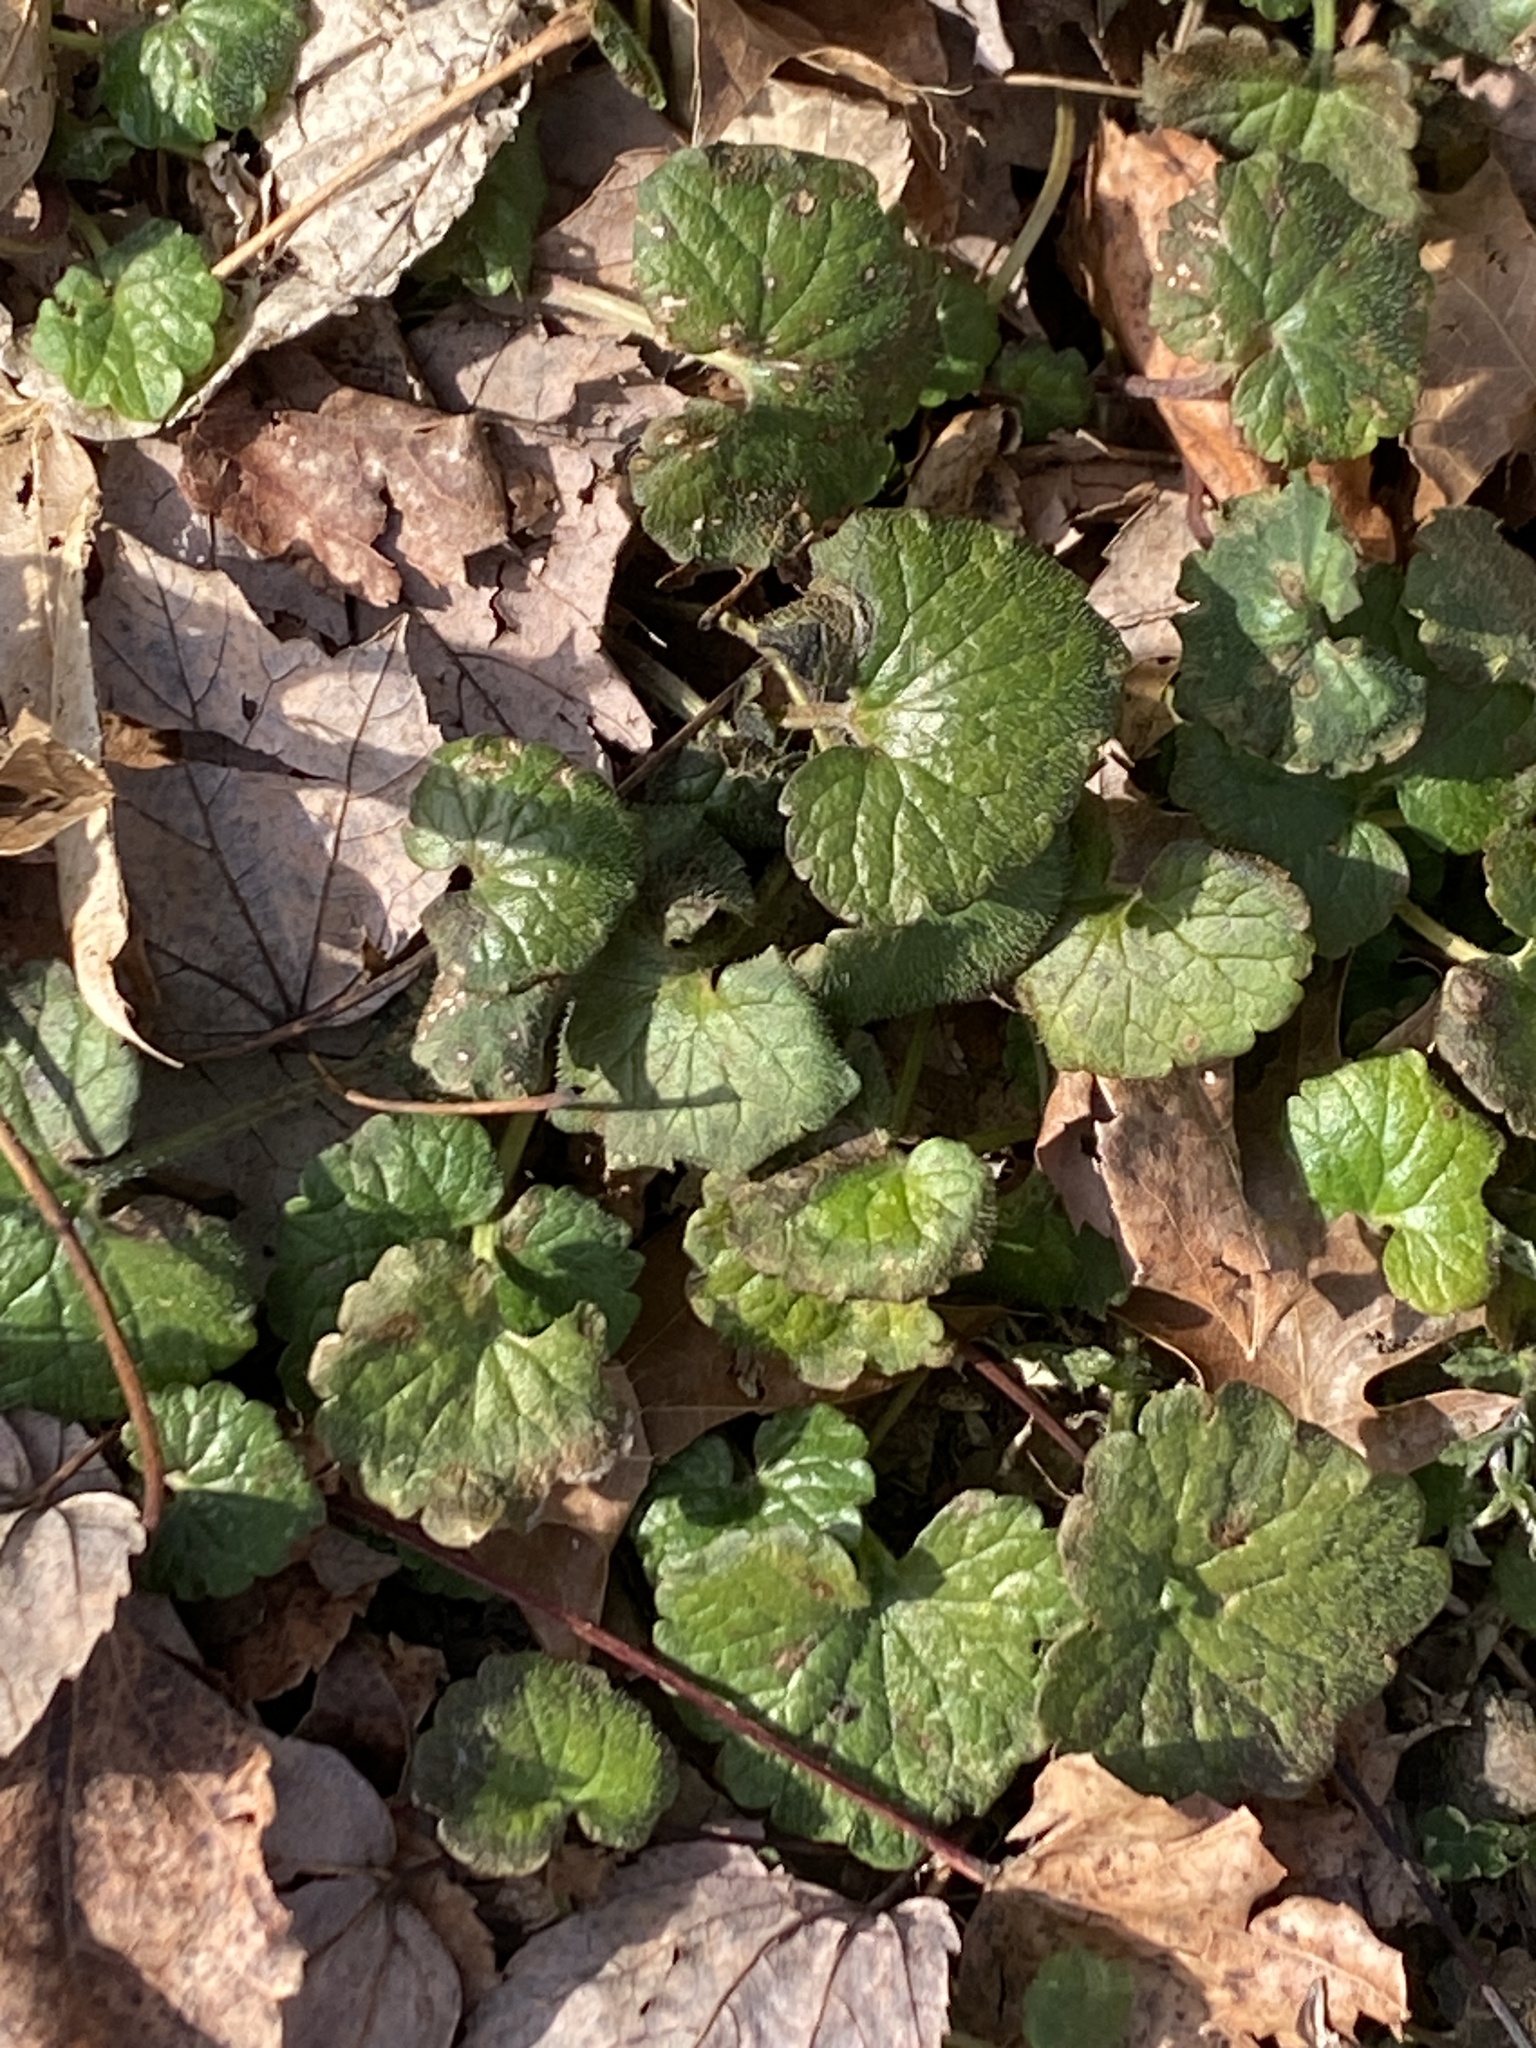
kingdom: Plantae
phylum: Tracheophyta
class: Magnoliopsida
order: Lamiales
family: Lamiaceae
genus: Glechoma
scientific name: Glechoma hederacea
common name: Ground ivy
